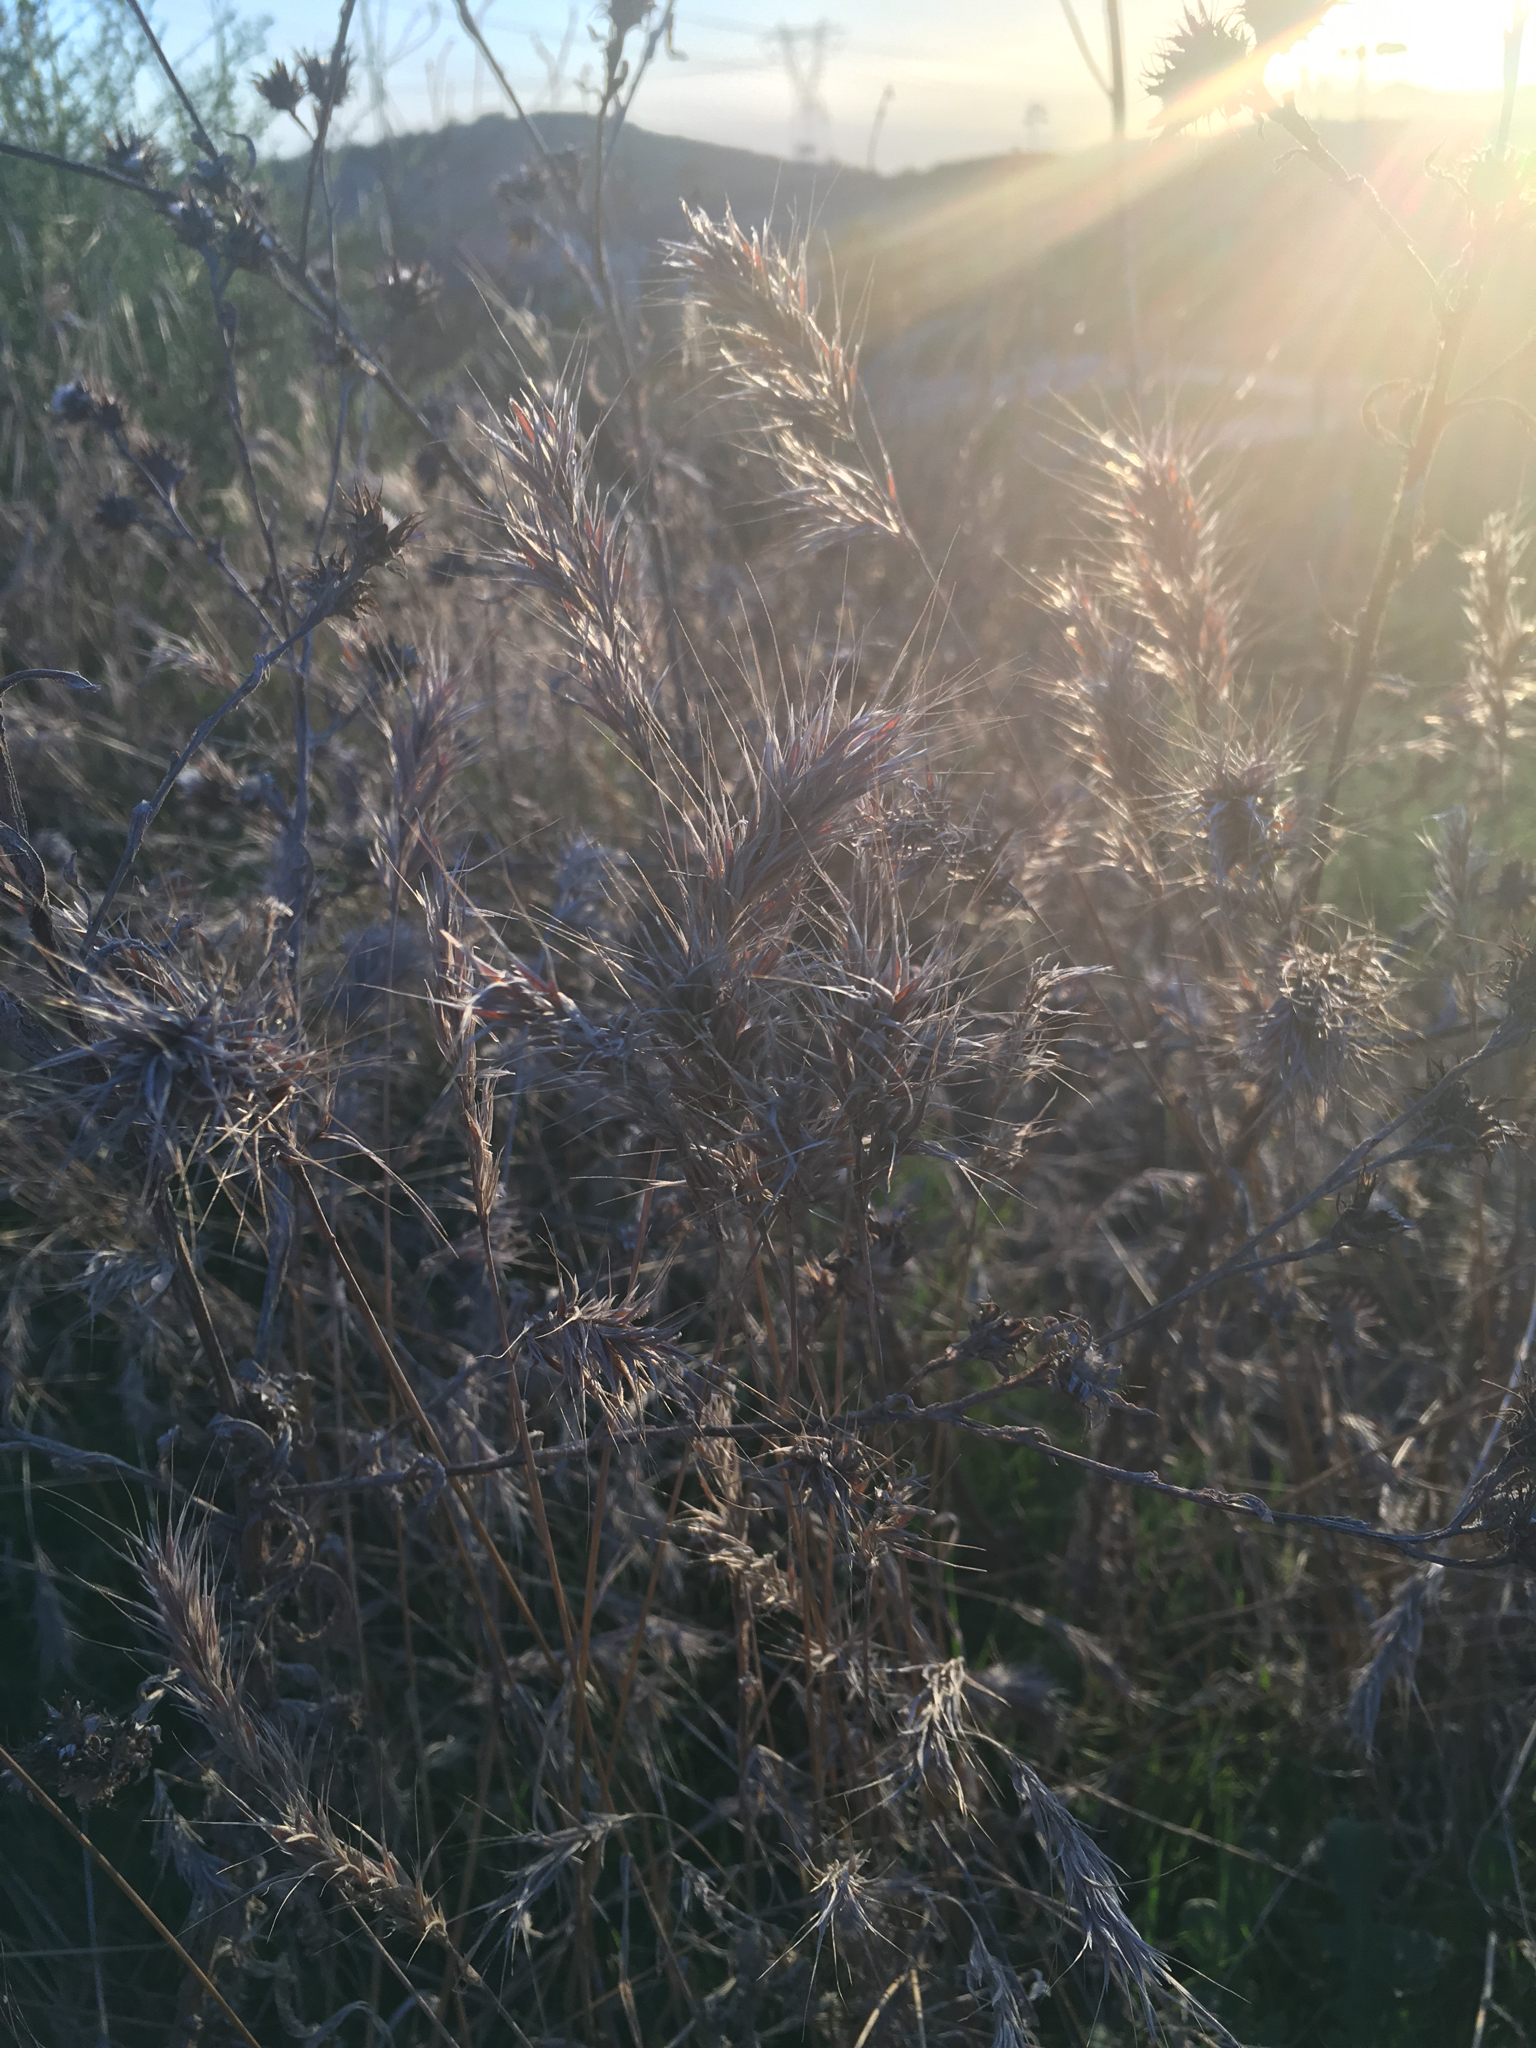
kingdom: Plantae
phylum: Tracheophyta
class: Liliopsida
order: Poales
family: Poaceae
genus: Bromus
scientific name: Bromus madritensis
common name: Compact brome
